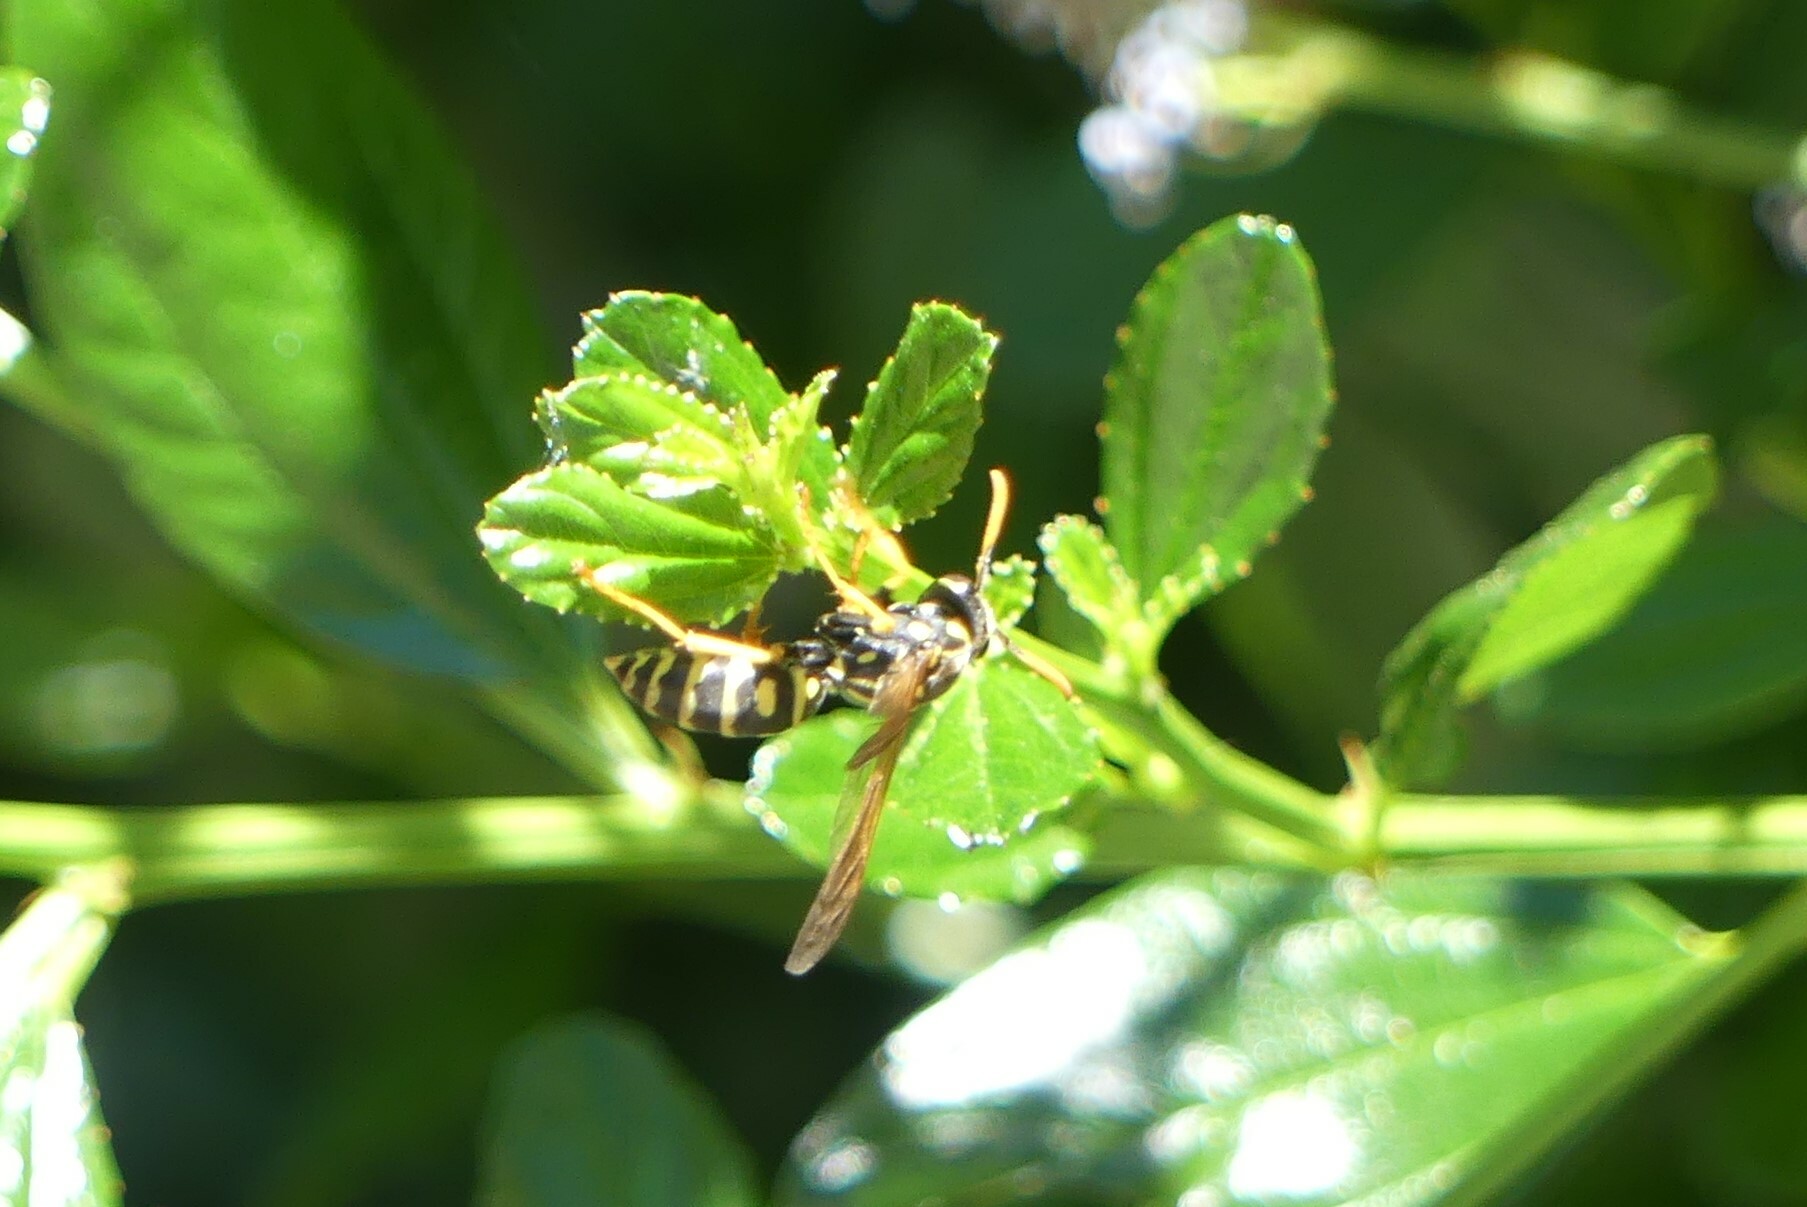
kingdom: Animalia
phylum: Arthropoda
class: Insecta
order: Hymenoptera
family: Eumenidae
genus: Polistes
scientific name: Polistes dominula
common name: Paper wasp
